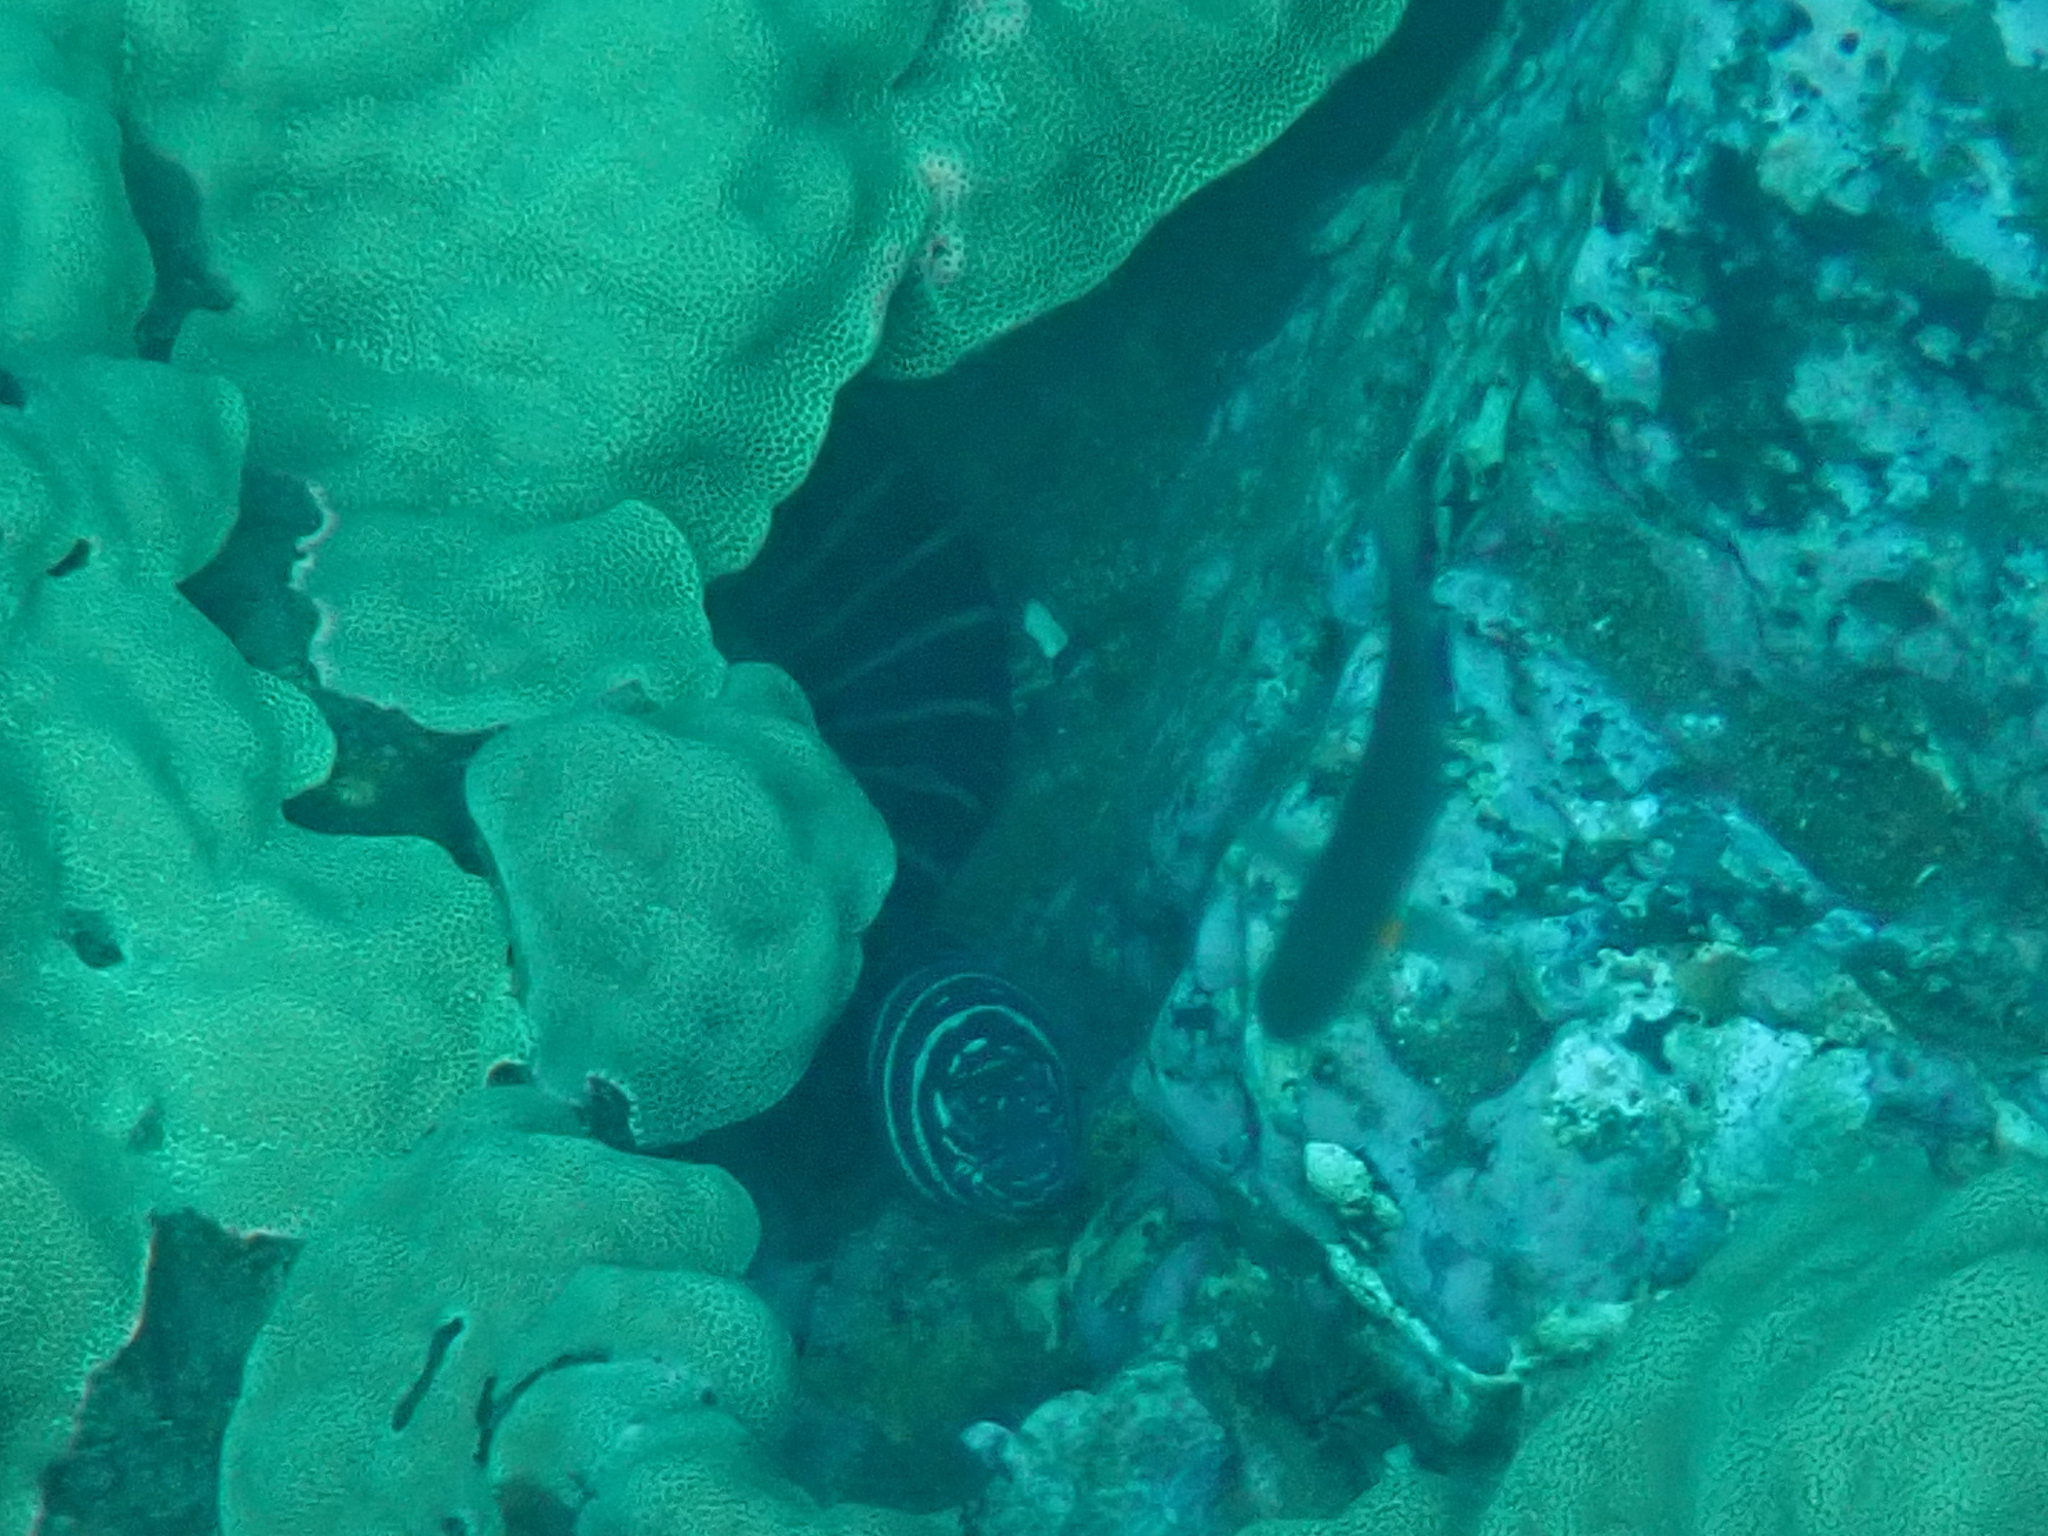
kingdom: Animalia
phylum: Chordata
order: Anguilliformes
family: Muraenidae
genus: Gymnomuraena
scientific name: Gymnomuraena zebra
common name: Zebra moray
